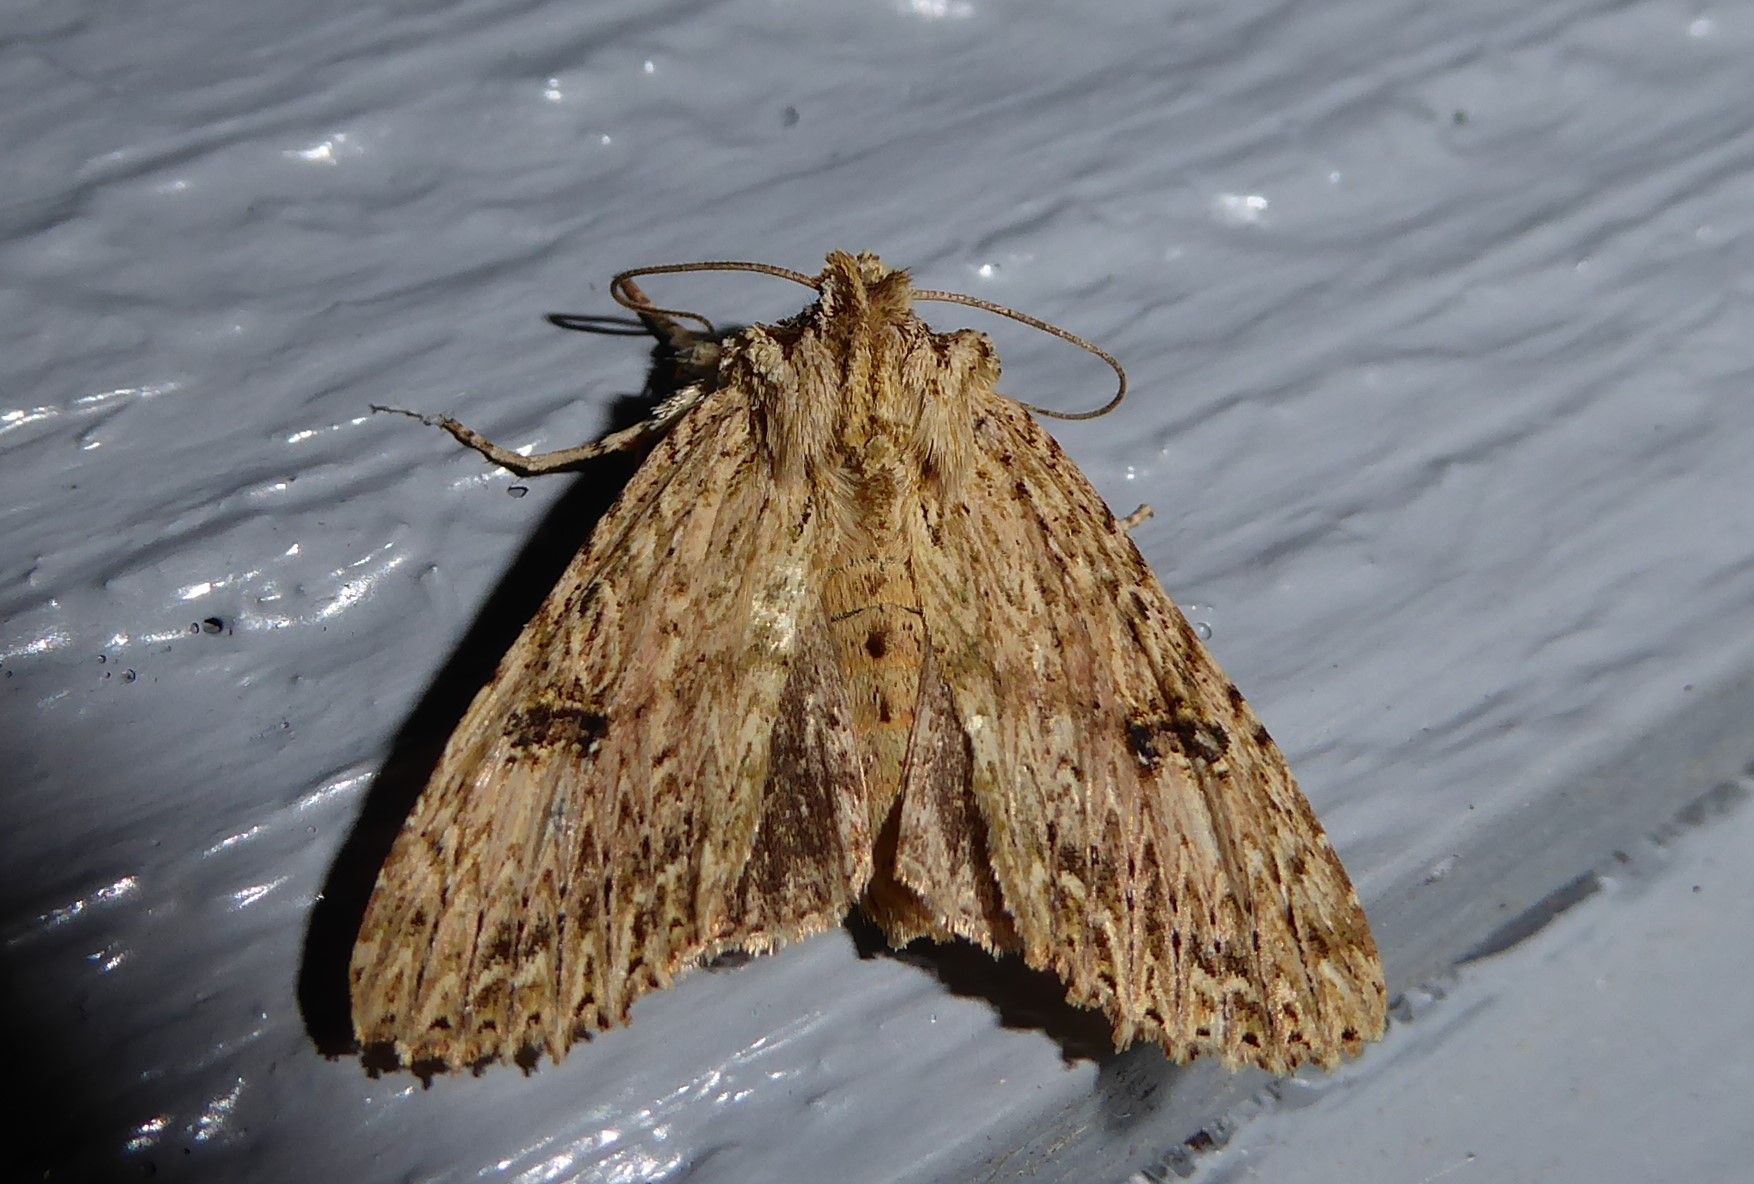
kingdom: Animalia
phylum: Arthropoda
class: Insecta
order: Lepidoptera
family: Noctuidae
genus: Meterana
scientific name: Meterana pansicolor
